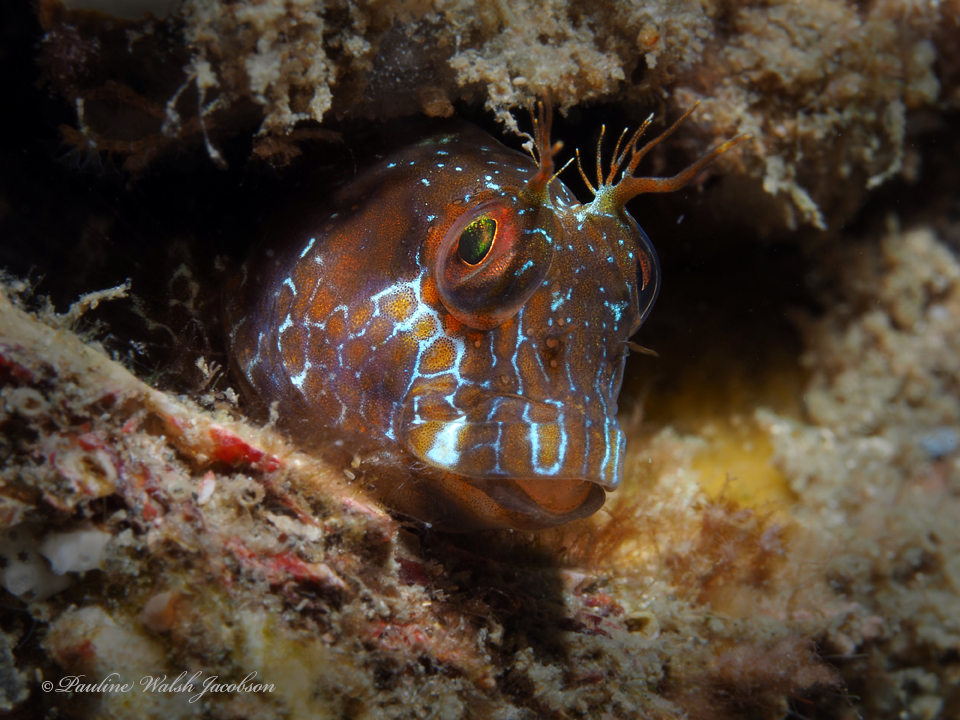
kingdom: Animalia
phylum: Chordata
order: Perciformes
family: Blenniidae
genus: Parablennius
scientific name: Parablennius marmoreus
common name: Seaweed blenny
